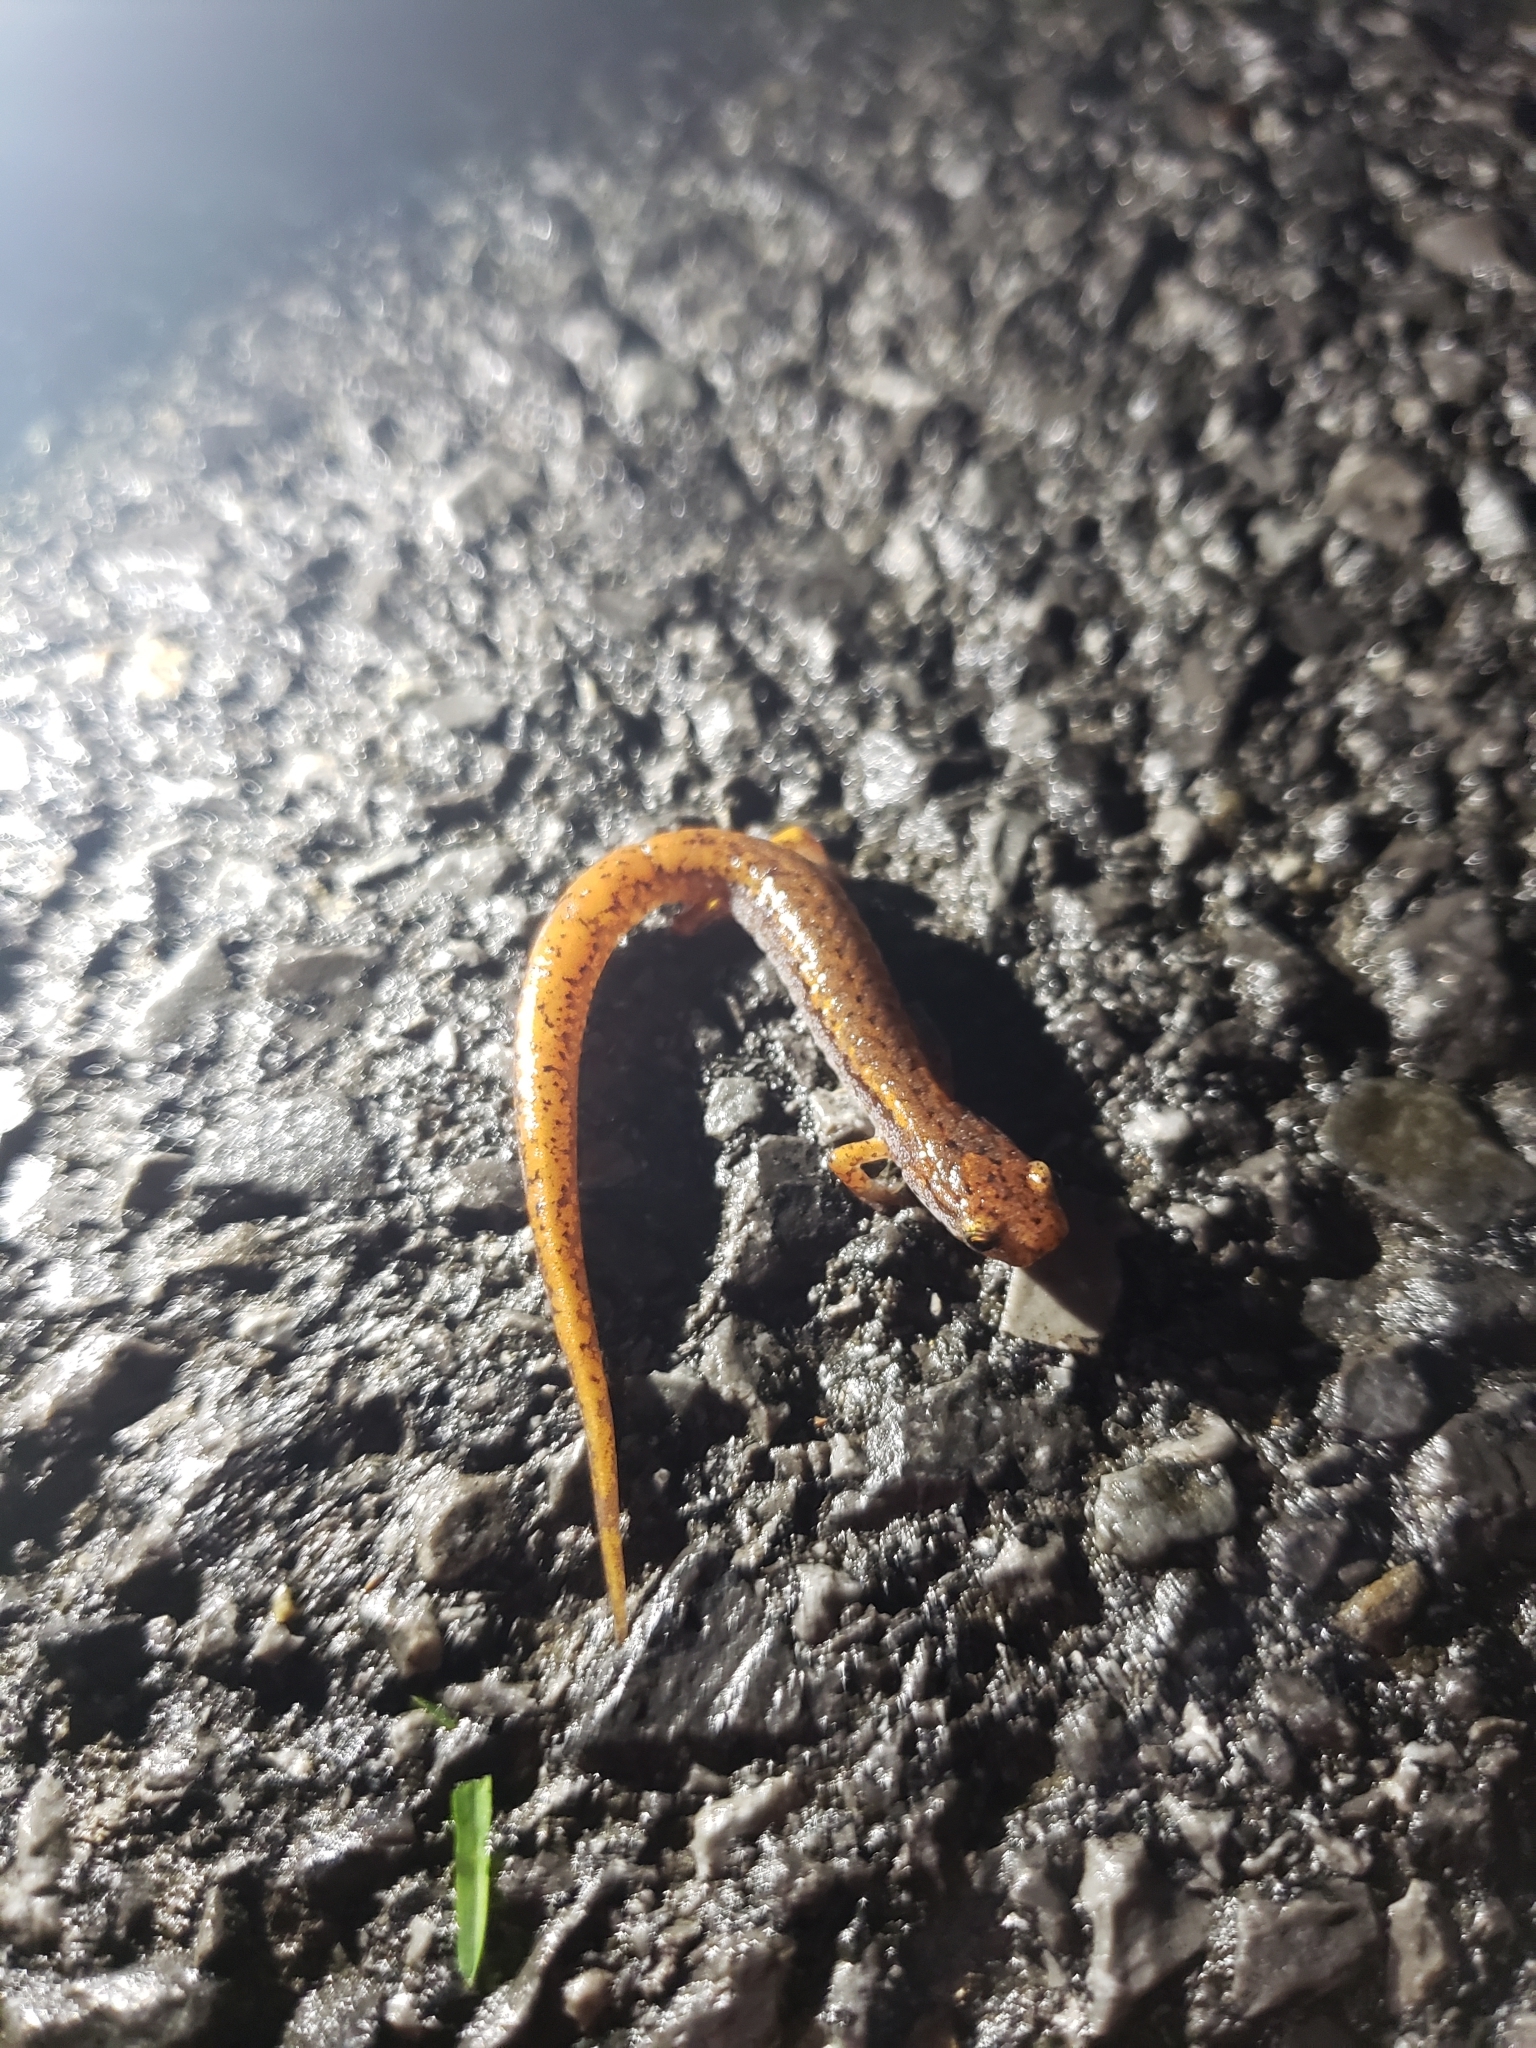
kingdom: Animalia
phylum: Chordata
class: Amphibia
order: Caudata
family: Plethodontidae
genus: Hemidactylium
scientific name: Hemidactylium scutatum
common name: Four-toed salamander
